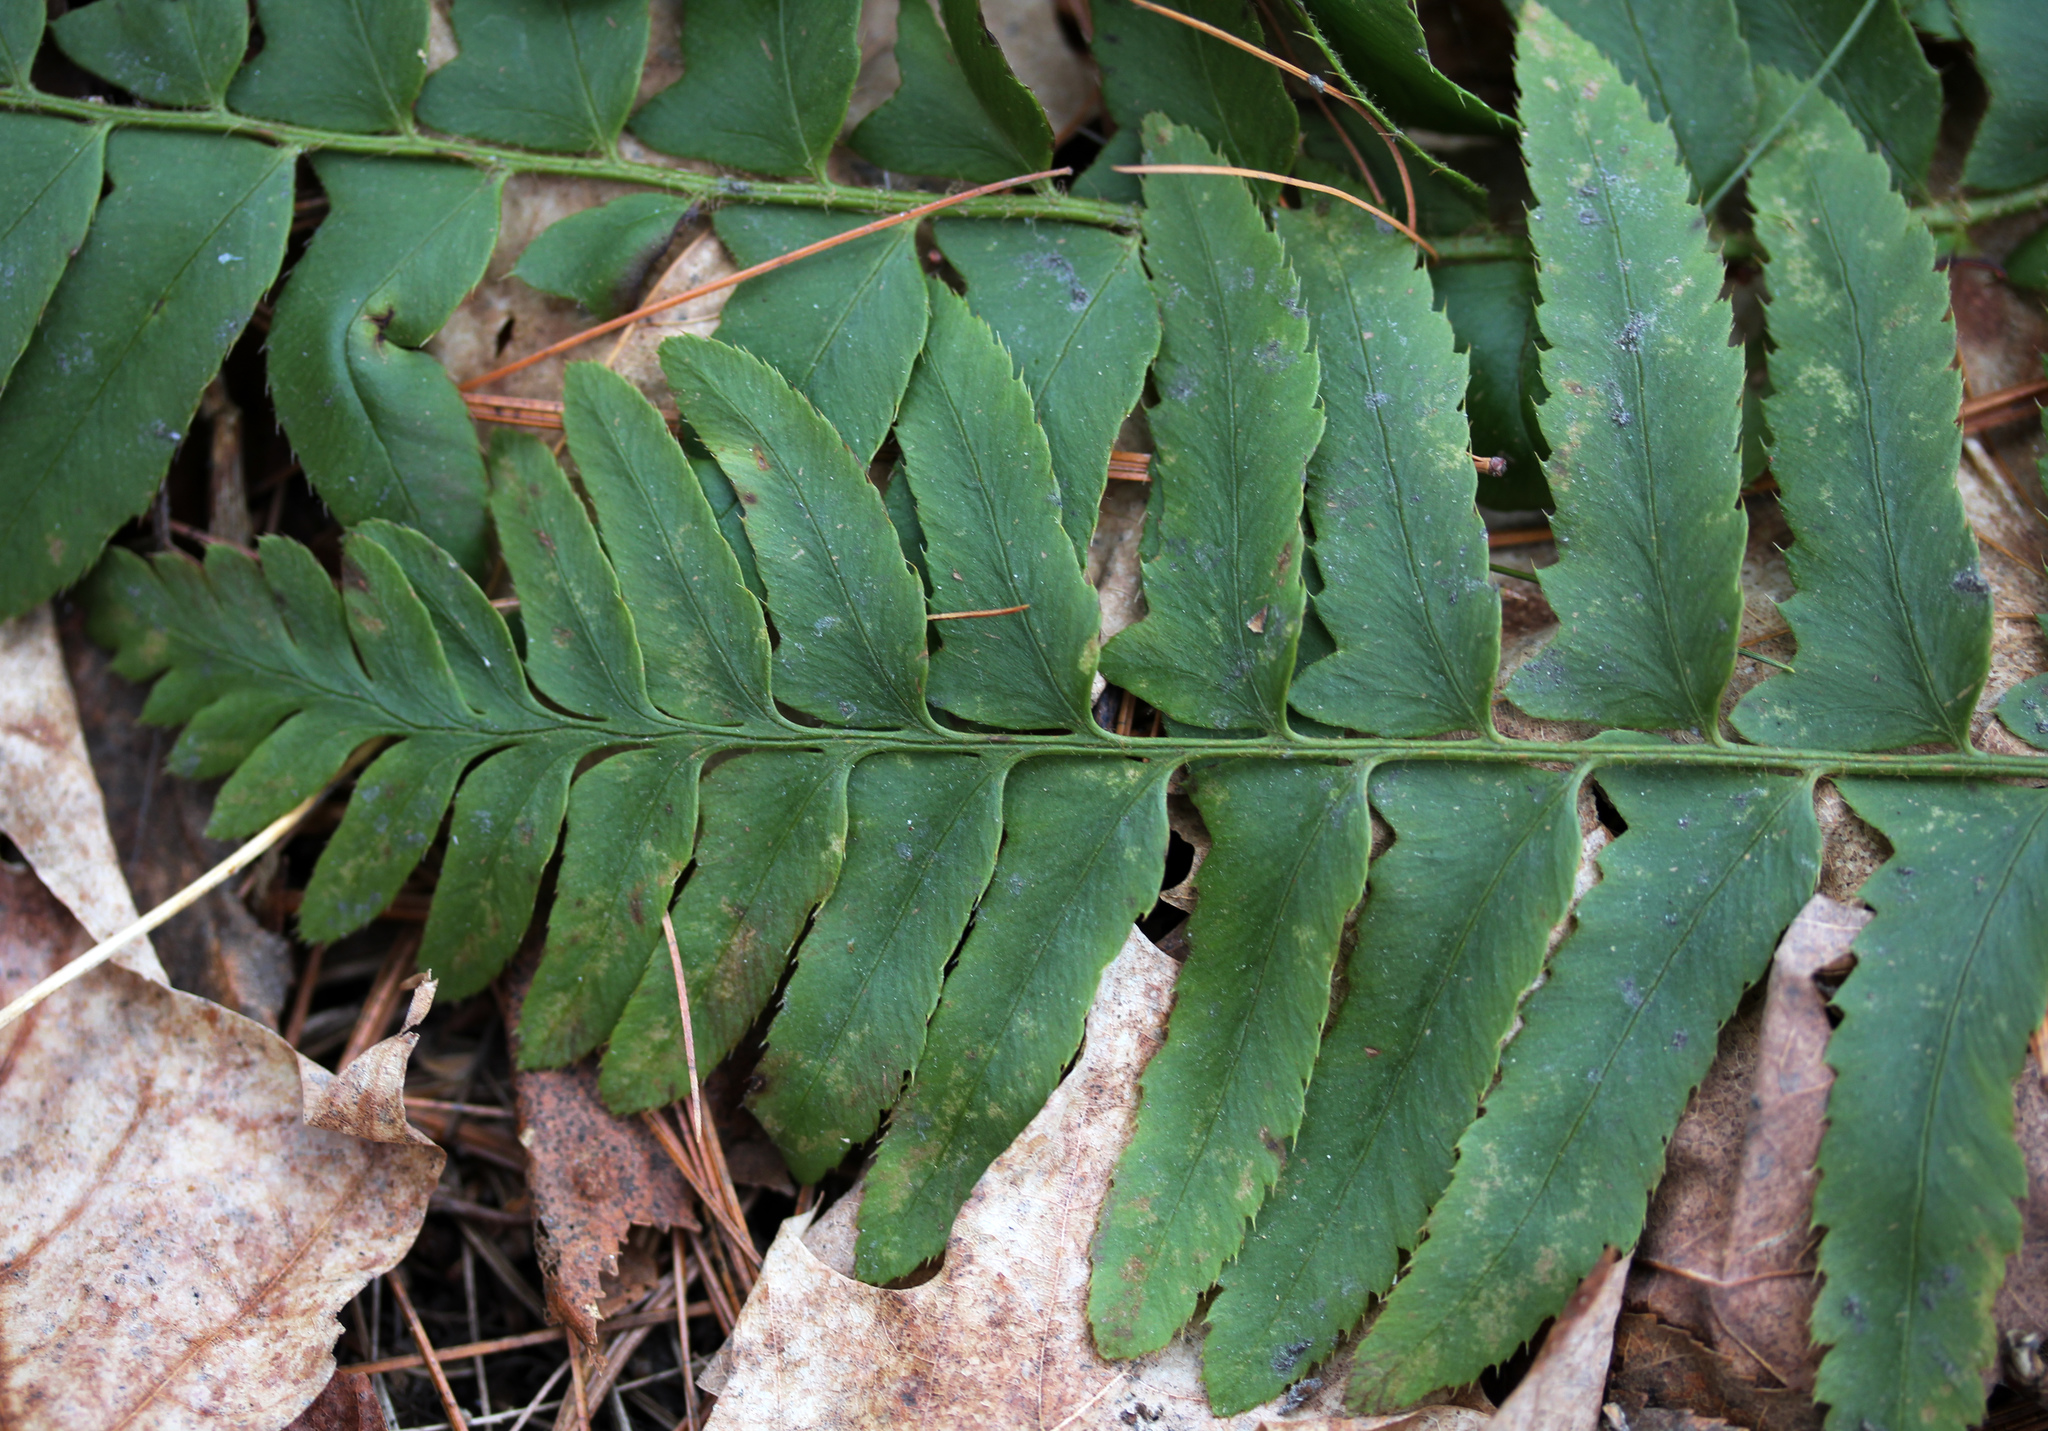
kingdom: Plantae
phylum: Tracheophyta
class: Polypodiopsida
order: Polypodiales
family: Dryopteridaceae
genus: Polystichum
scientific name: Polystichum acrostichoides
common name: Christmas fern
